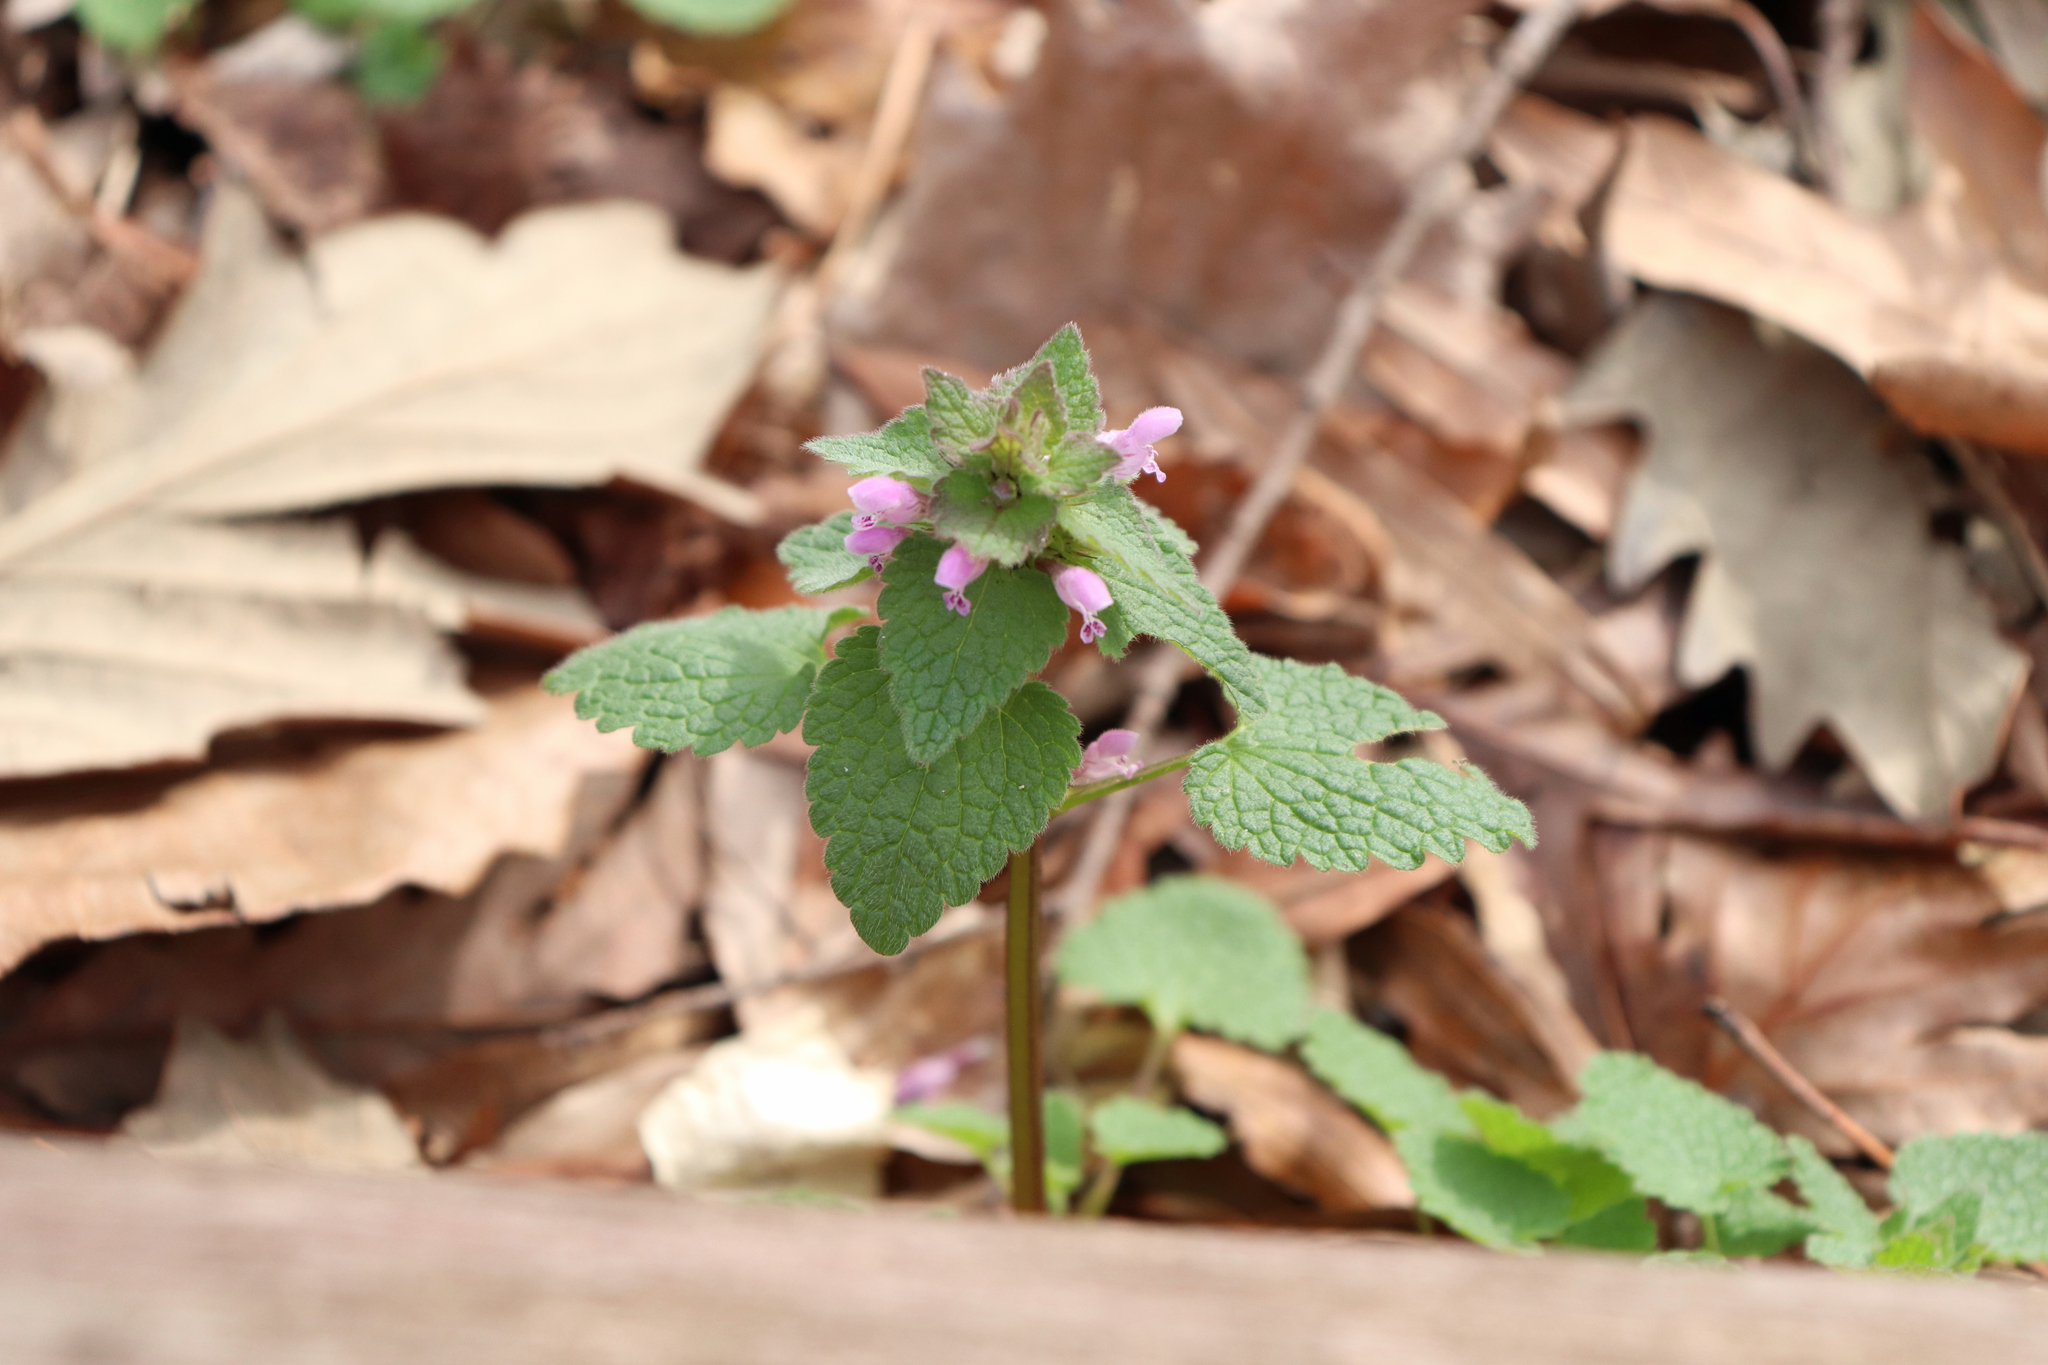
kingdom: Plantae
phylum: Tracheophyta
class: Magnoliopsida
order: Lamiales
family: Lamiaceae
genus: Lamium
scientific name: Lamium purpureum
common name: Red dead-nettle
